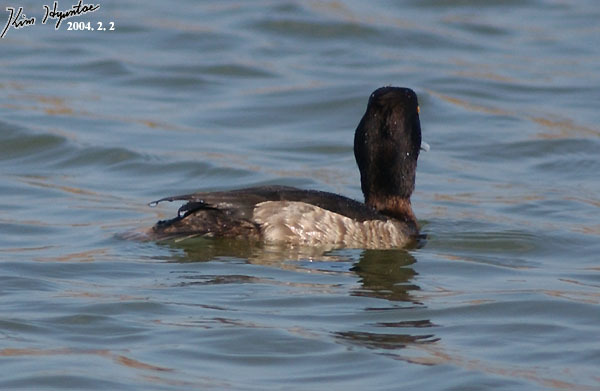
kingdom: Animalia
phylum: Chordata
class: Aves
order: Anseriformes
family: Anatidae
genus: Aythya
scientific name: Aythya fuligula
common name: Tufted duck
